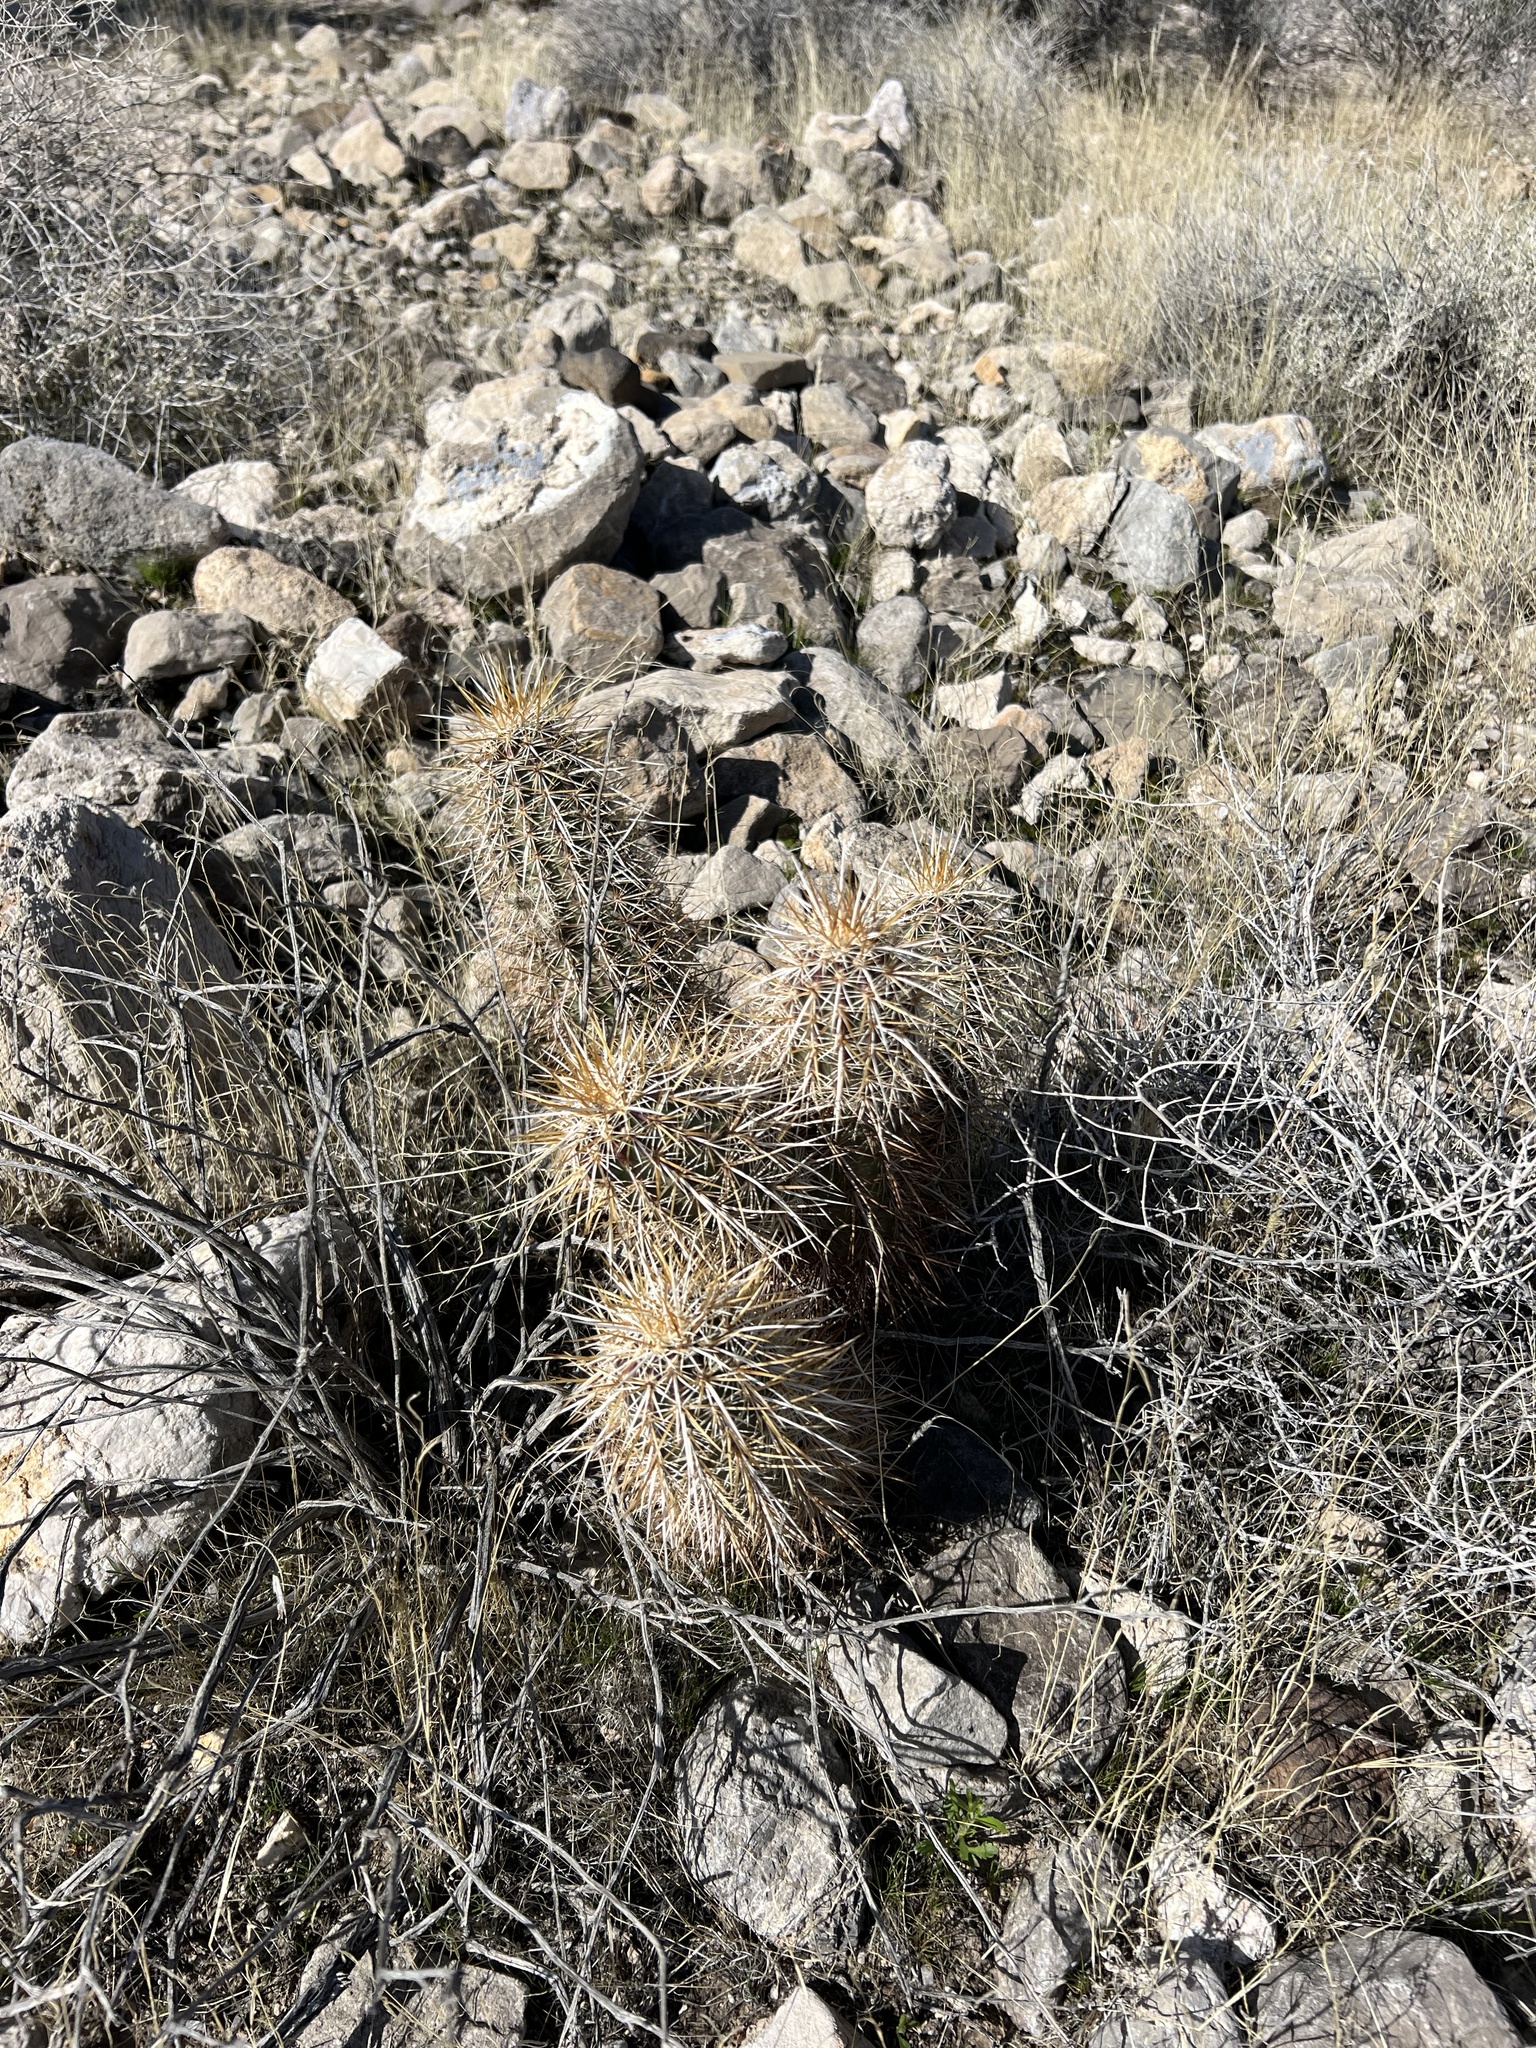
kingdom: Plantae
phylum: Tracheophyta
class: Magnoliopsida
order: Caryophyllales
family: Cactaceae
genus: Echinocereus
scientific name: Echinocereus engelmannii
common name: Engelmann's hedgehog cactus
